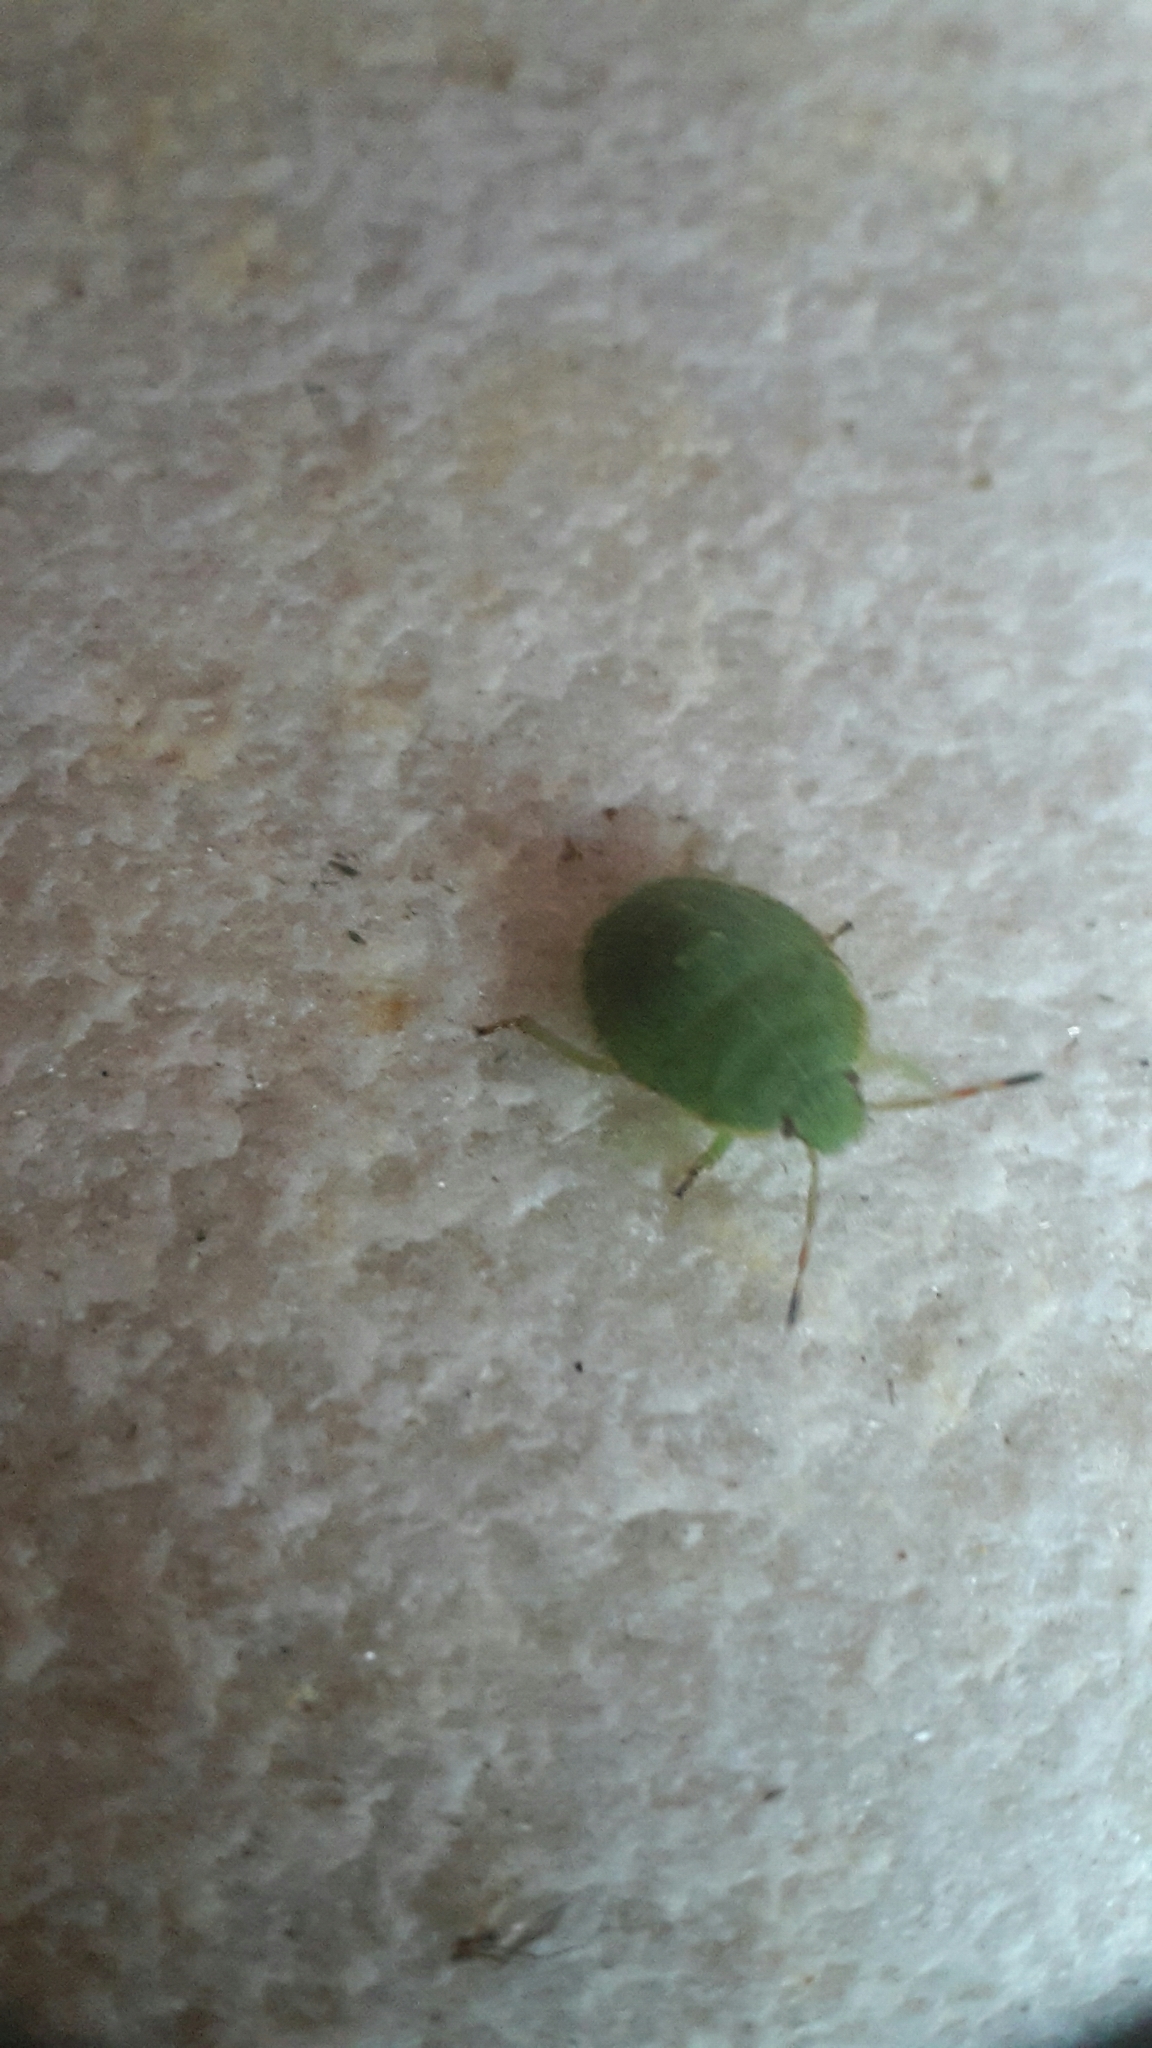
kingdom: Animalia
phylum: Arthropoda
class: Insecta
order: Hemiptera
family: Pentatomidae
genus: Palomena
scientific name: Palomena prasina
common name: Green shieldbug
